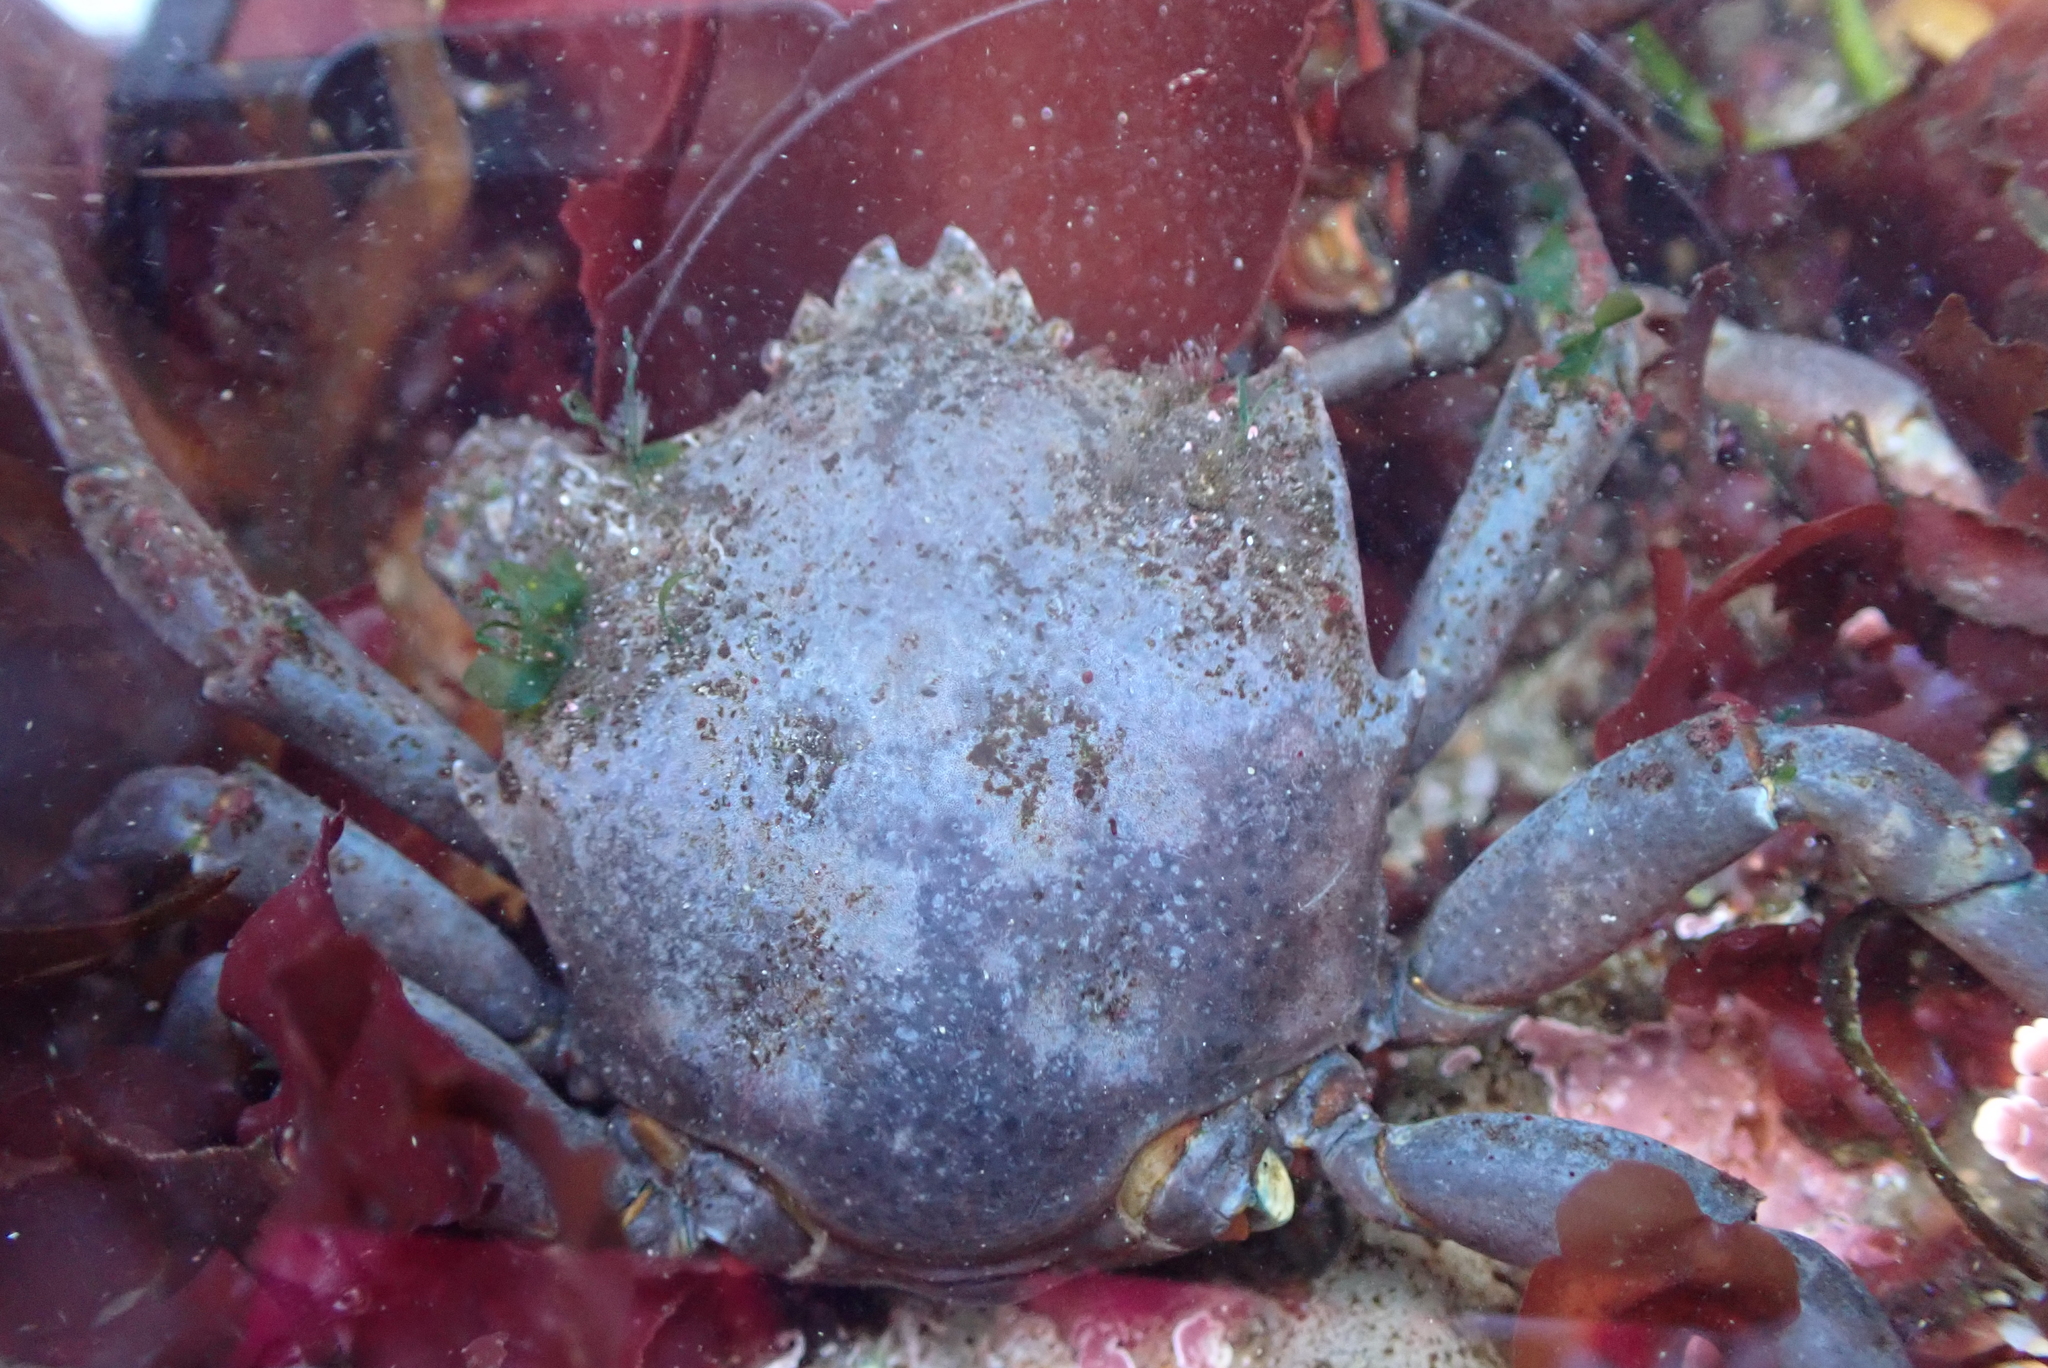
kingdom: Animalia
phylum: Arthropoda
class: Malacostraca
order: Decapoda
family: Epialtidae
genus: Pugettia
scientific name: Pugettia producta
